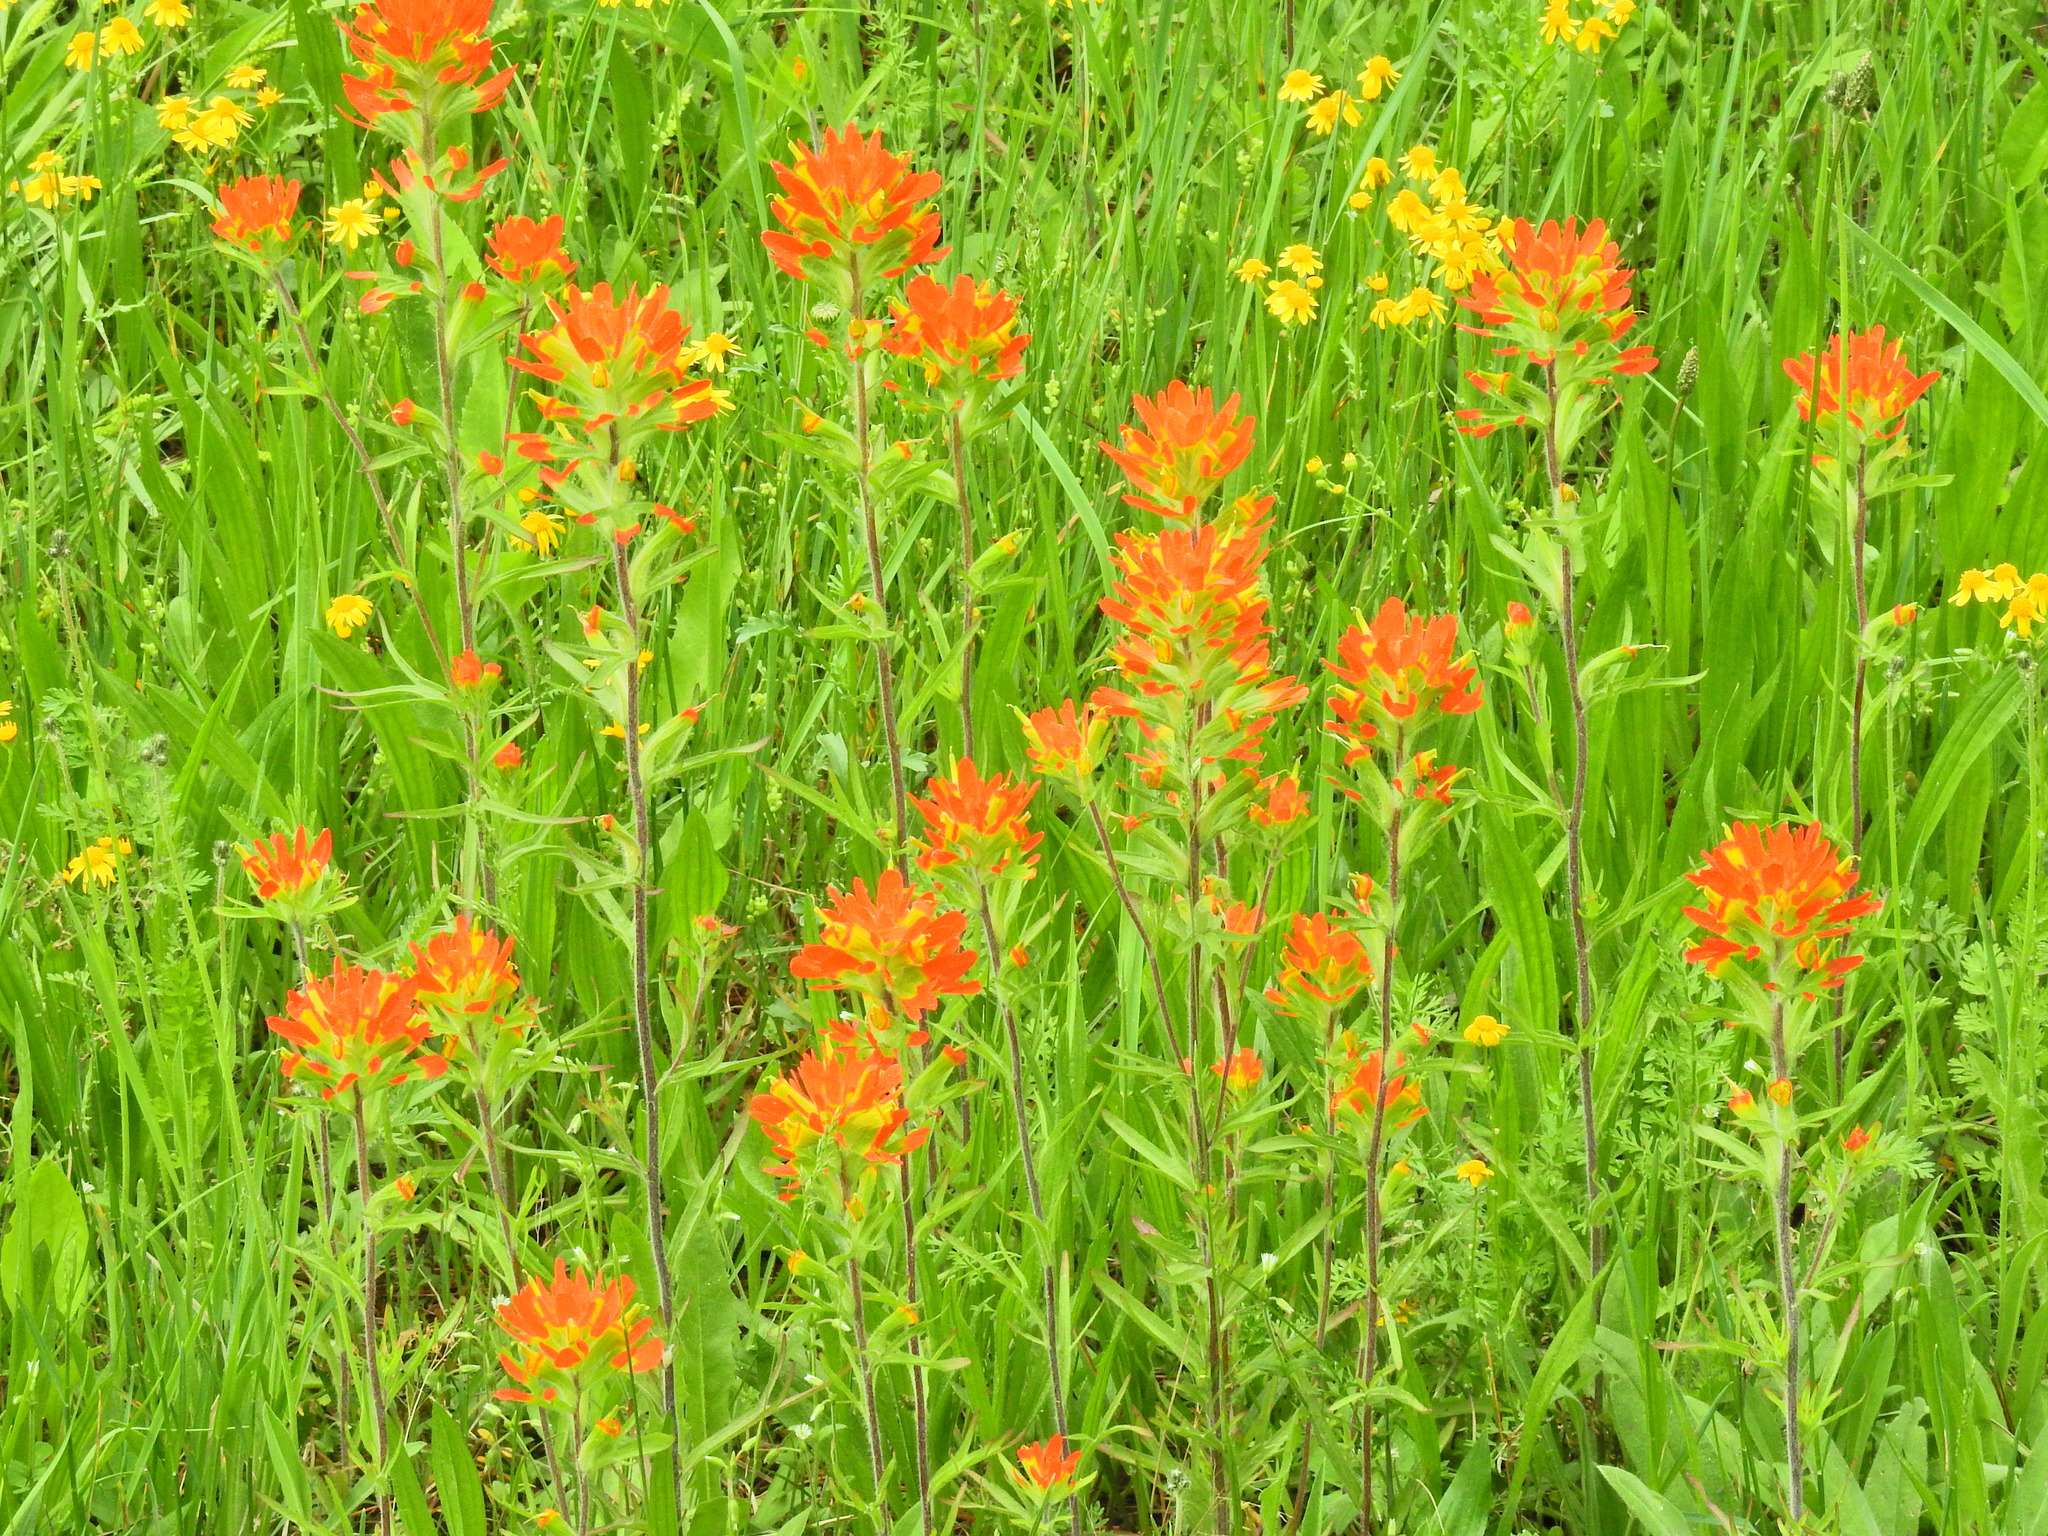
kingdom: Plantae
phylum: Tracheophyta
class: Magnoliopsida
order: Lamiales
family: Orobanchaceae
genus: Castilleja
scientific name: Castilleja coccinea
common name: Scarlet paintbrush
